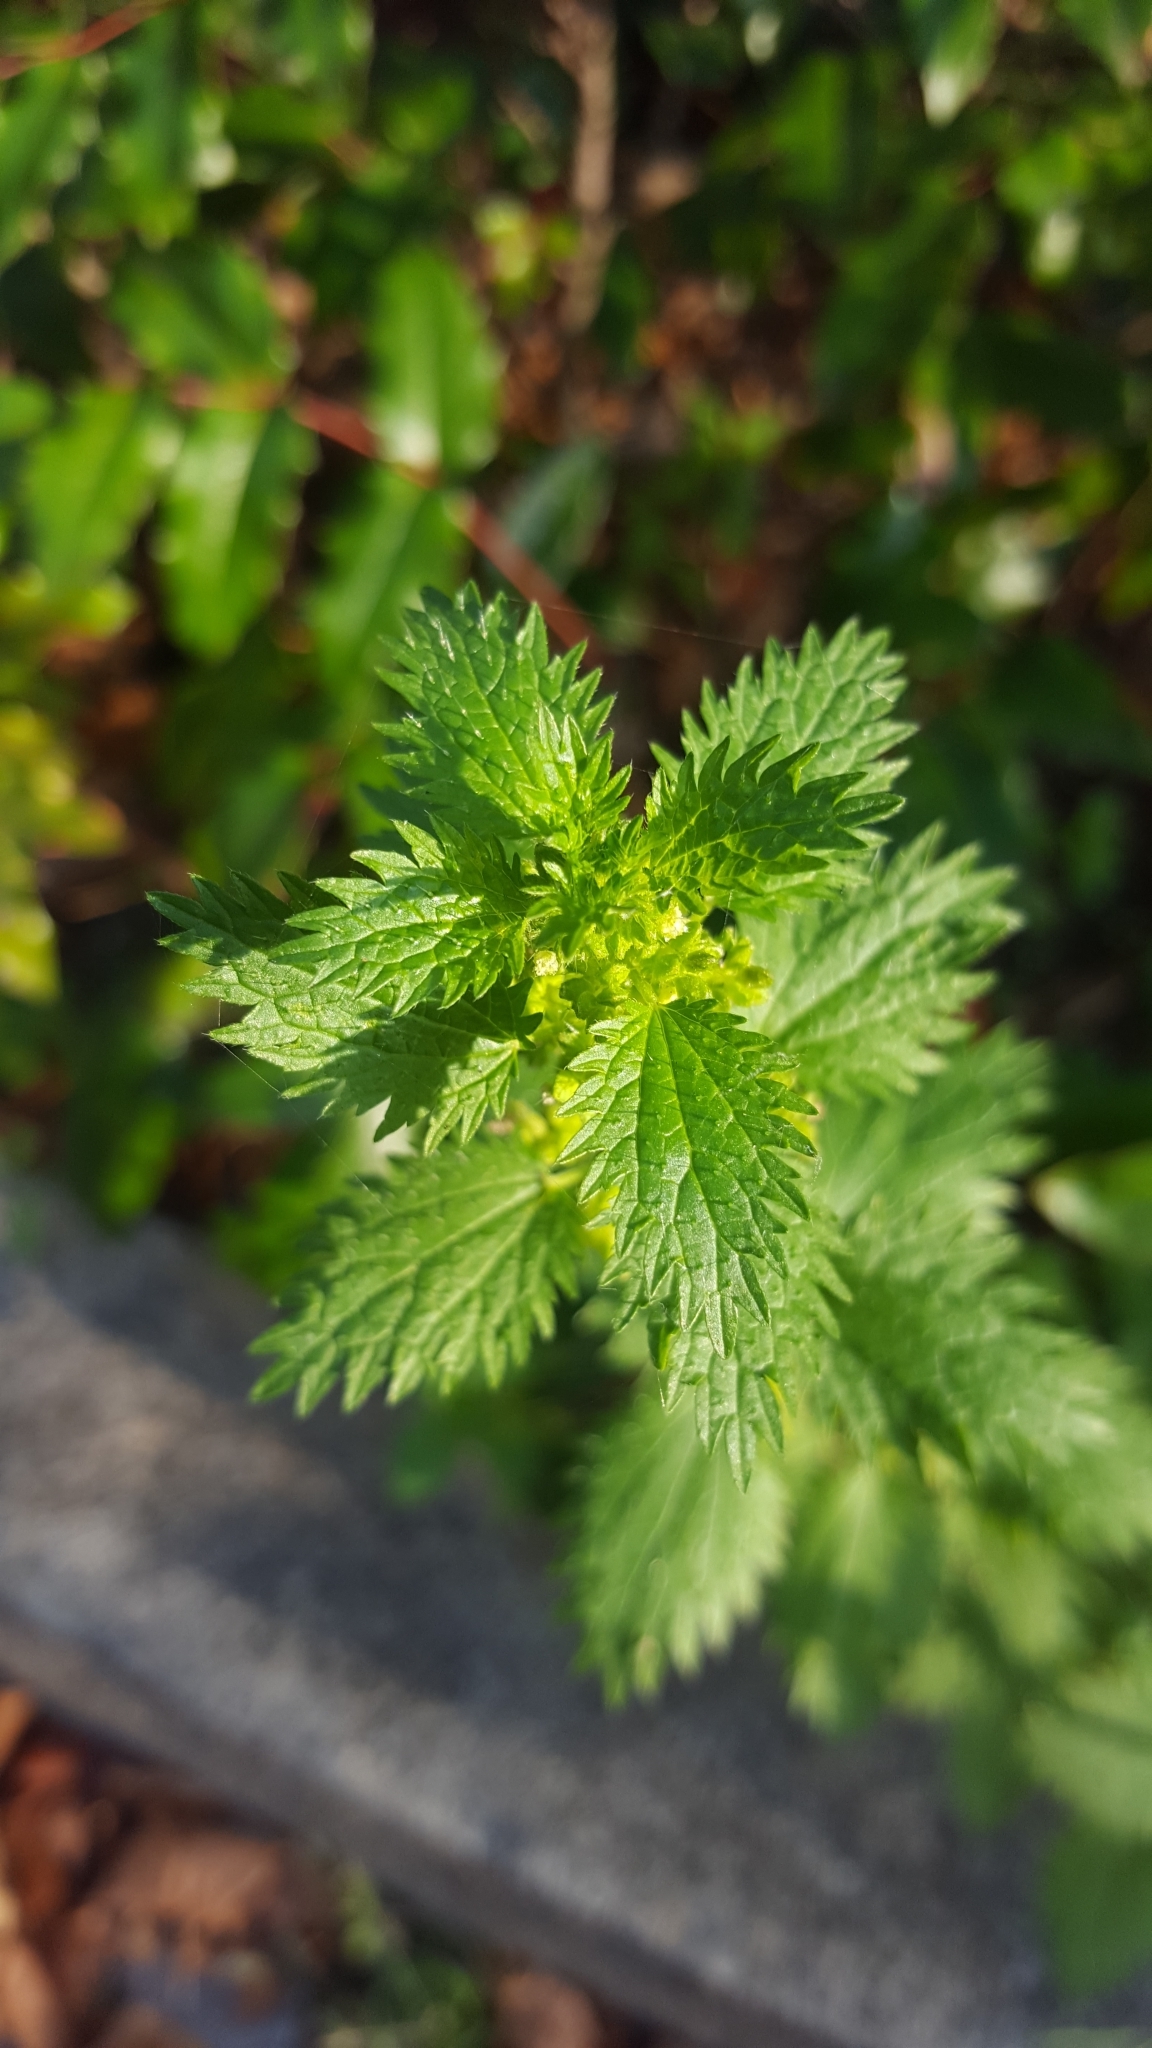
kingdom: Plantae
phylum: Tracheophyta
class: Magnoliopsida
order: Rosales
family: Urticaceae
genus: Urtica
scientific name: Urtica urens
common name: Dwarf nettle
